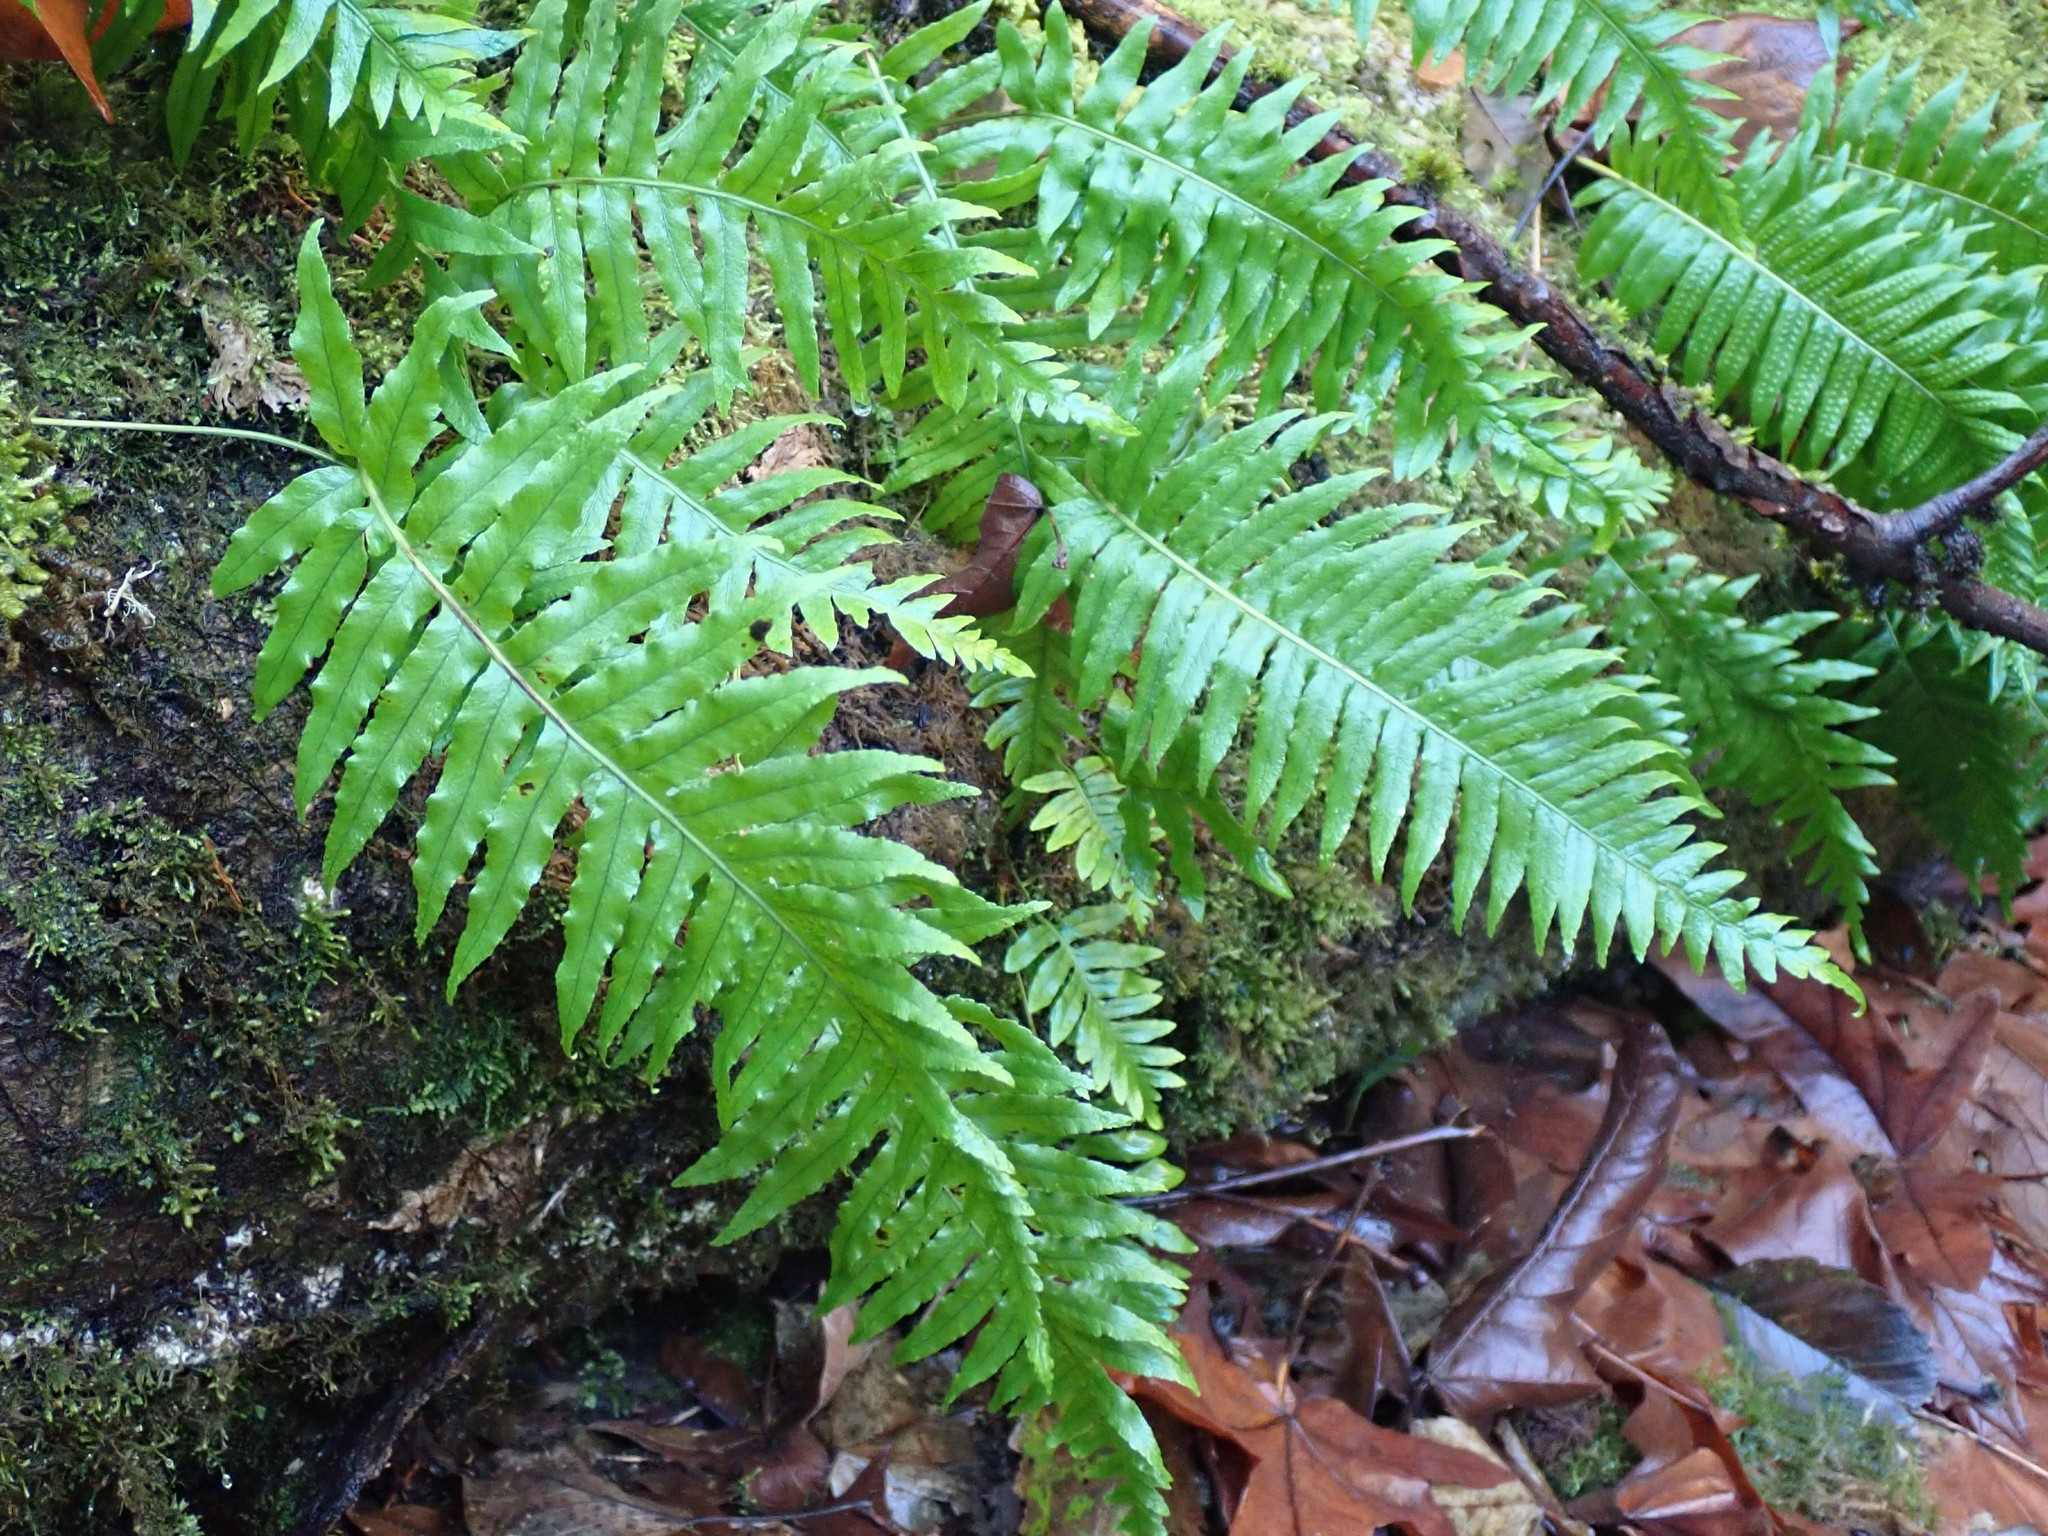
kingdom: Plantae
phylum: Tracheophyta
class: Polypodiopsida
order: Polypodiales
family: Polypodiaceae
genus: Polypodium
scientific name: Polypodium glycyrrhiza
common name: Licorice fern
